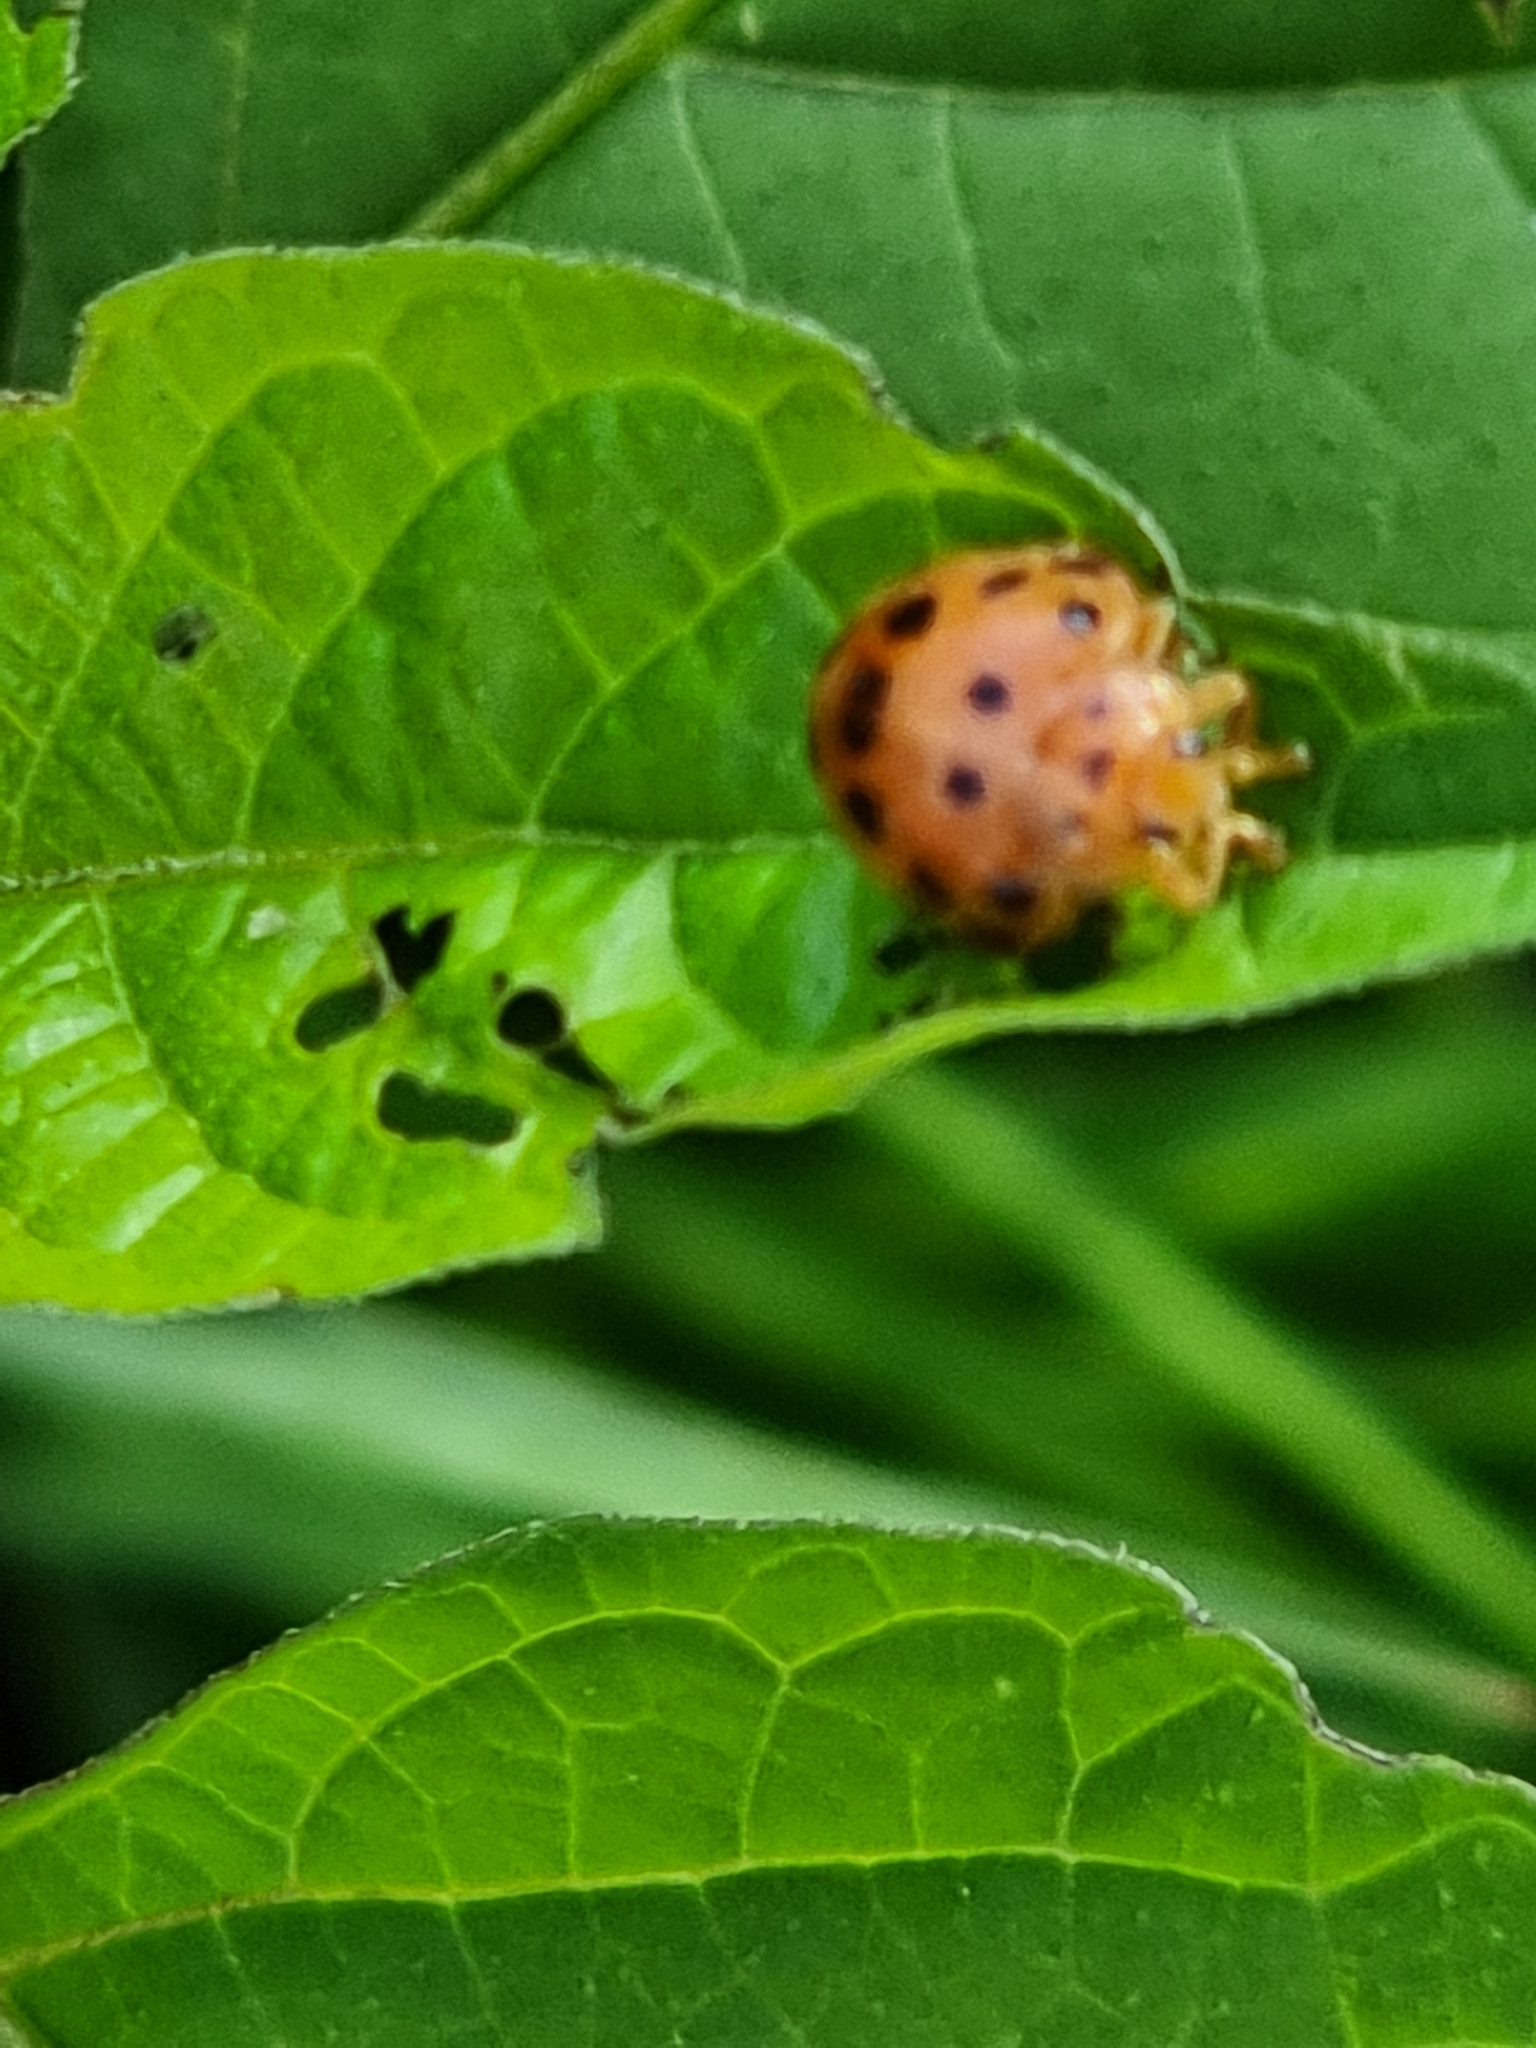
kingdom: Animalia
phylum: Arthropoda
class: Insecta
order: Coleoptera
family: Coccinellidae
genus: Henosepilachna
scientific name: Henosepilachna vigintioctopunctata
